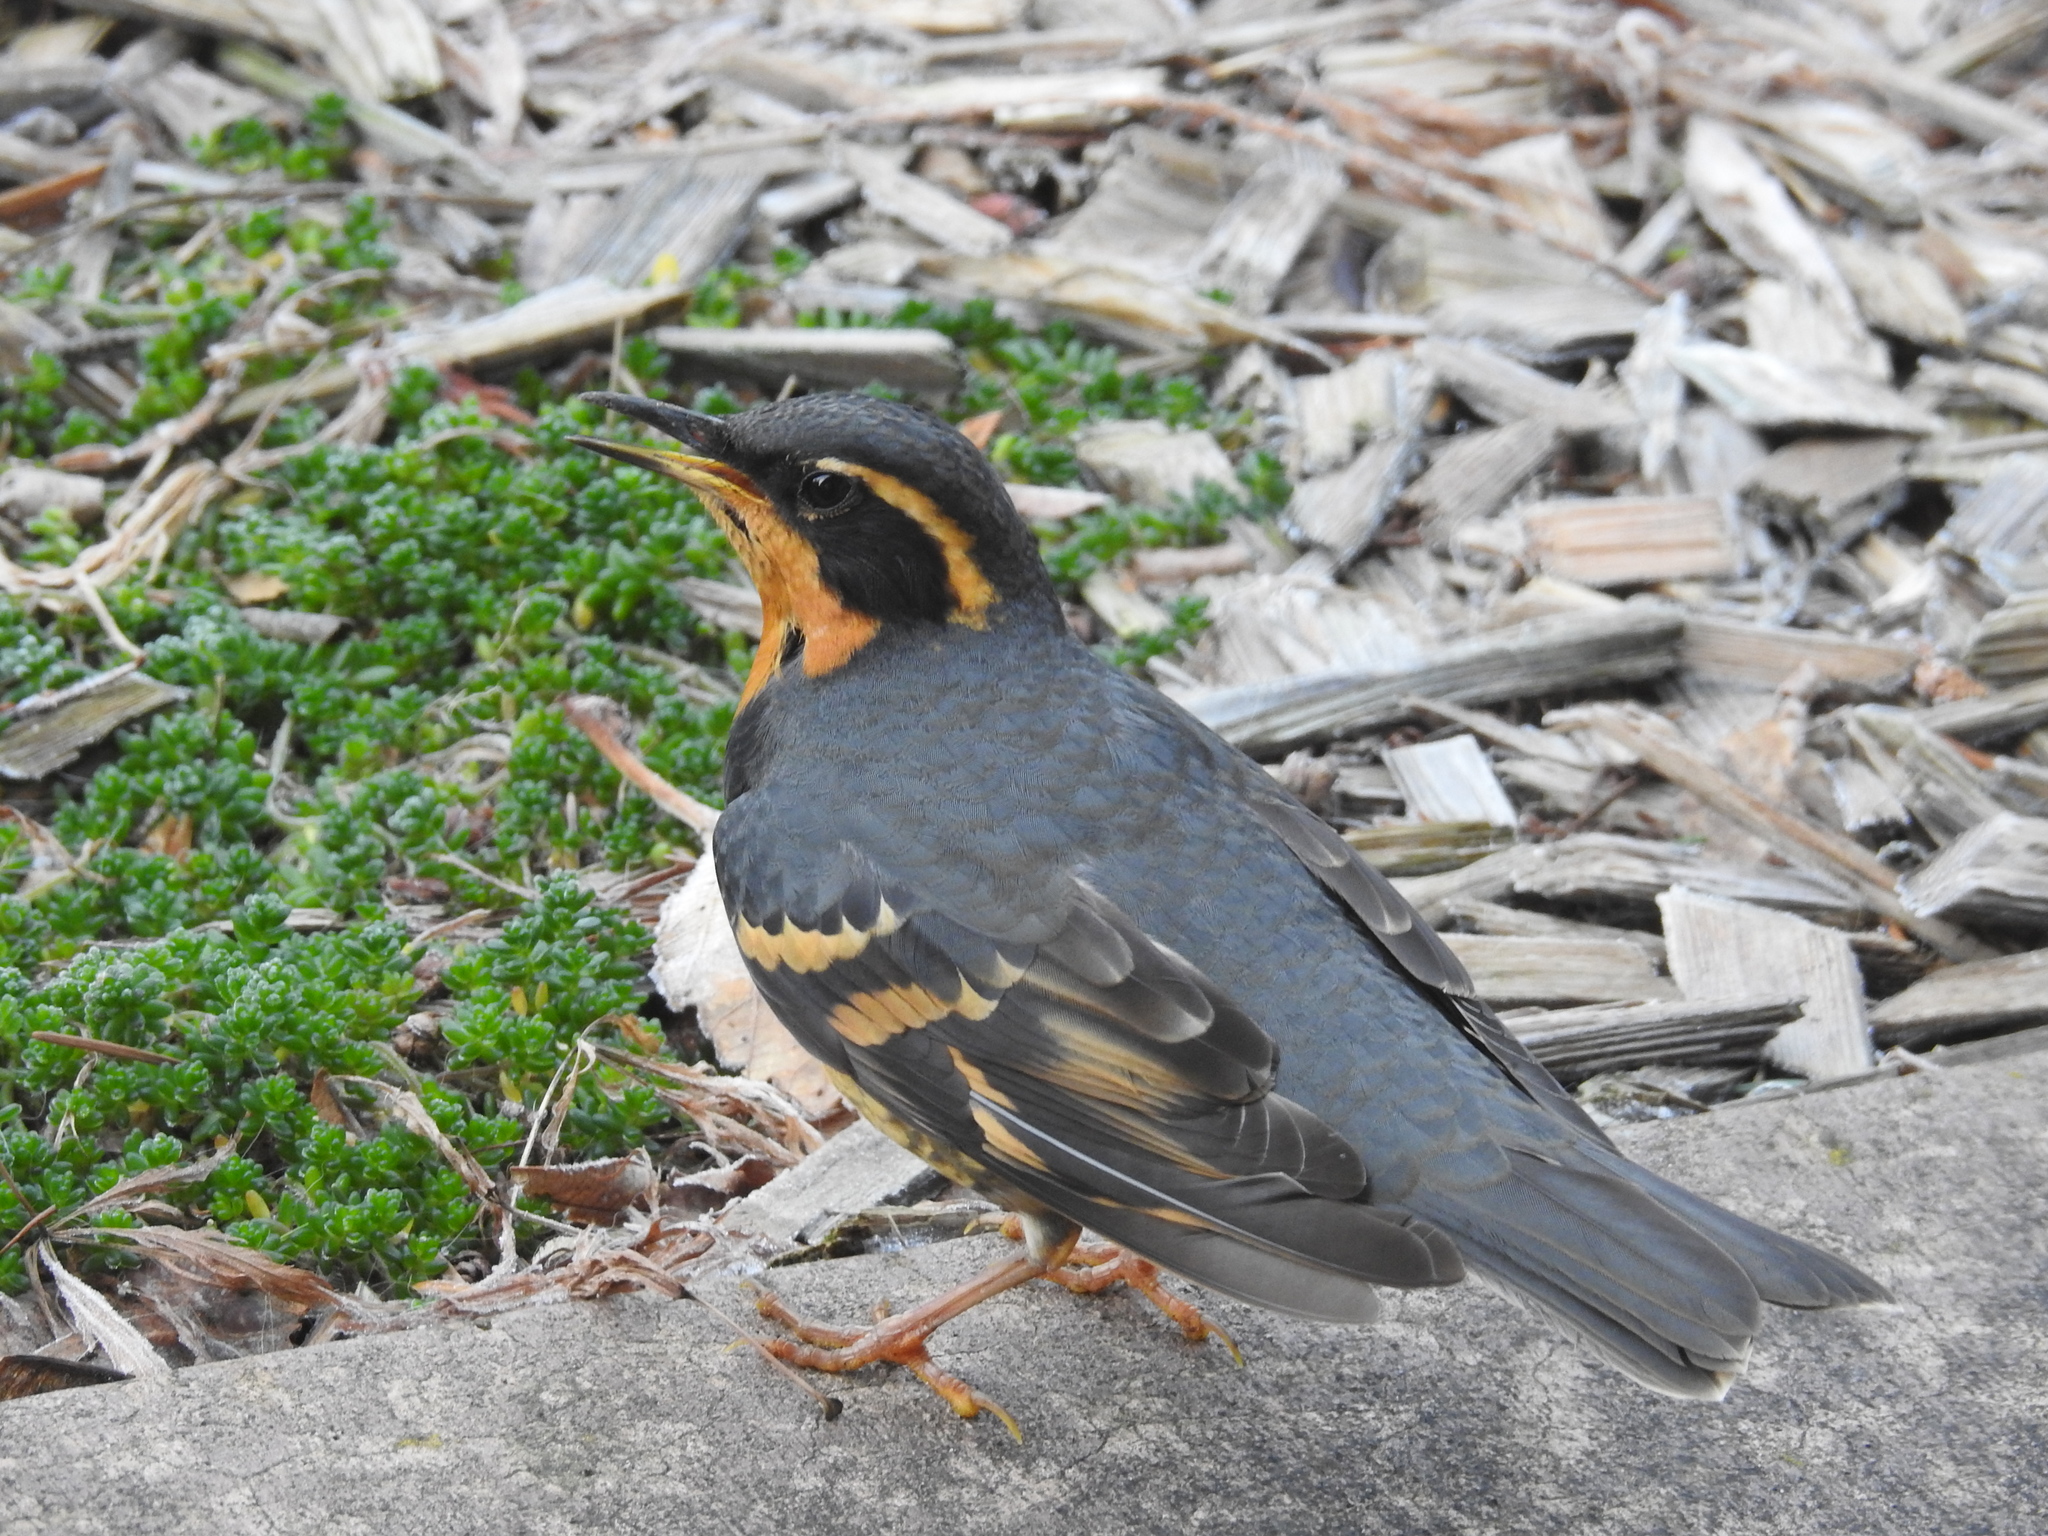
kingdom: Animalia
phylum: Chordata
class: Aves
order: Passeriformes
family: Turdidae
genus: Ixoreus
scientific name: Ixoreus naevius
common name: Varied thrush
